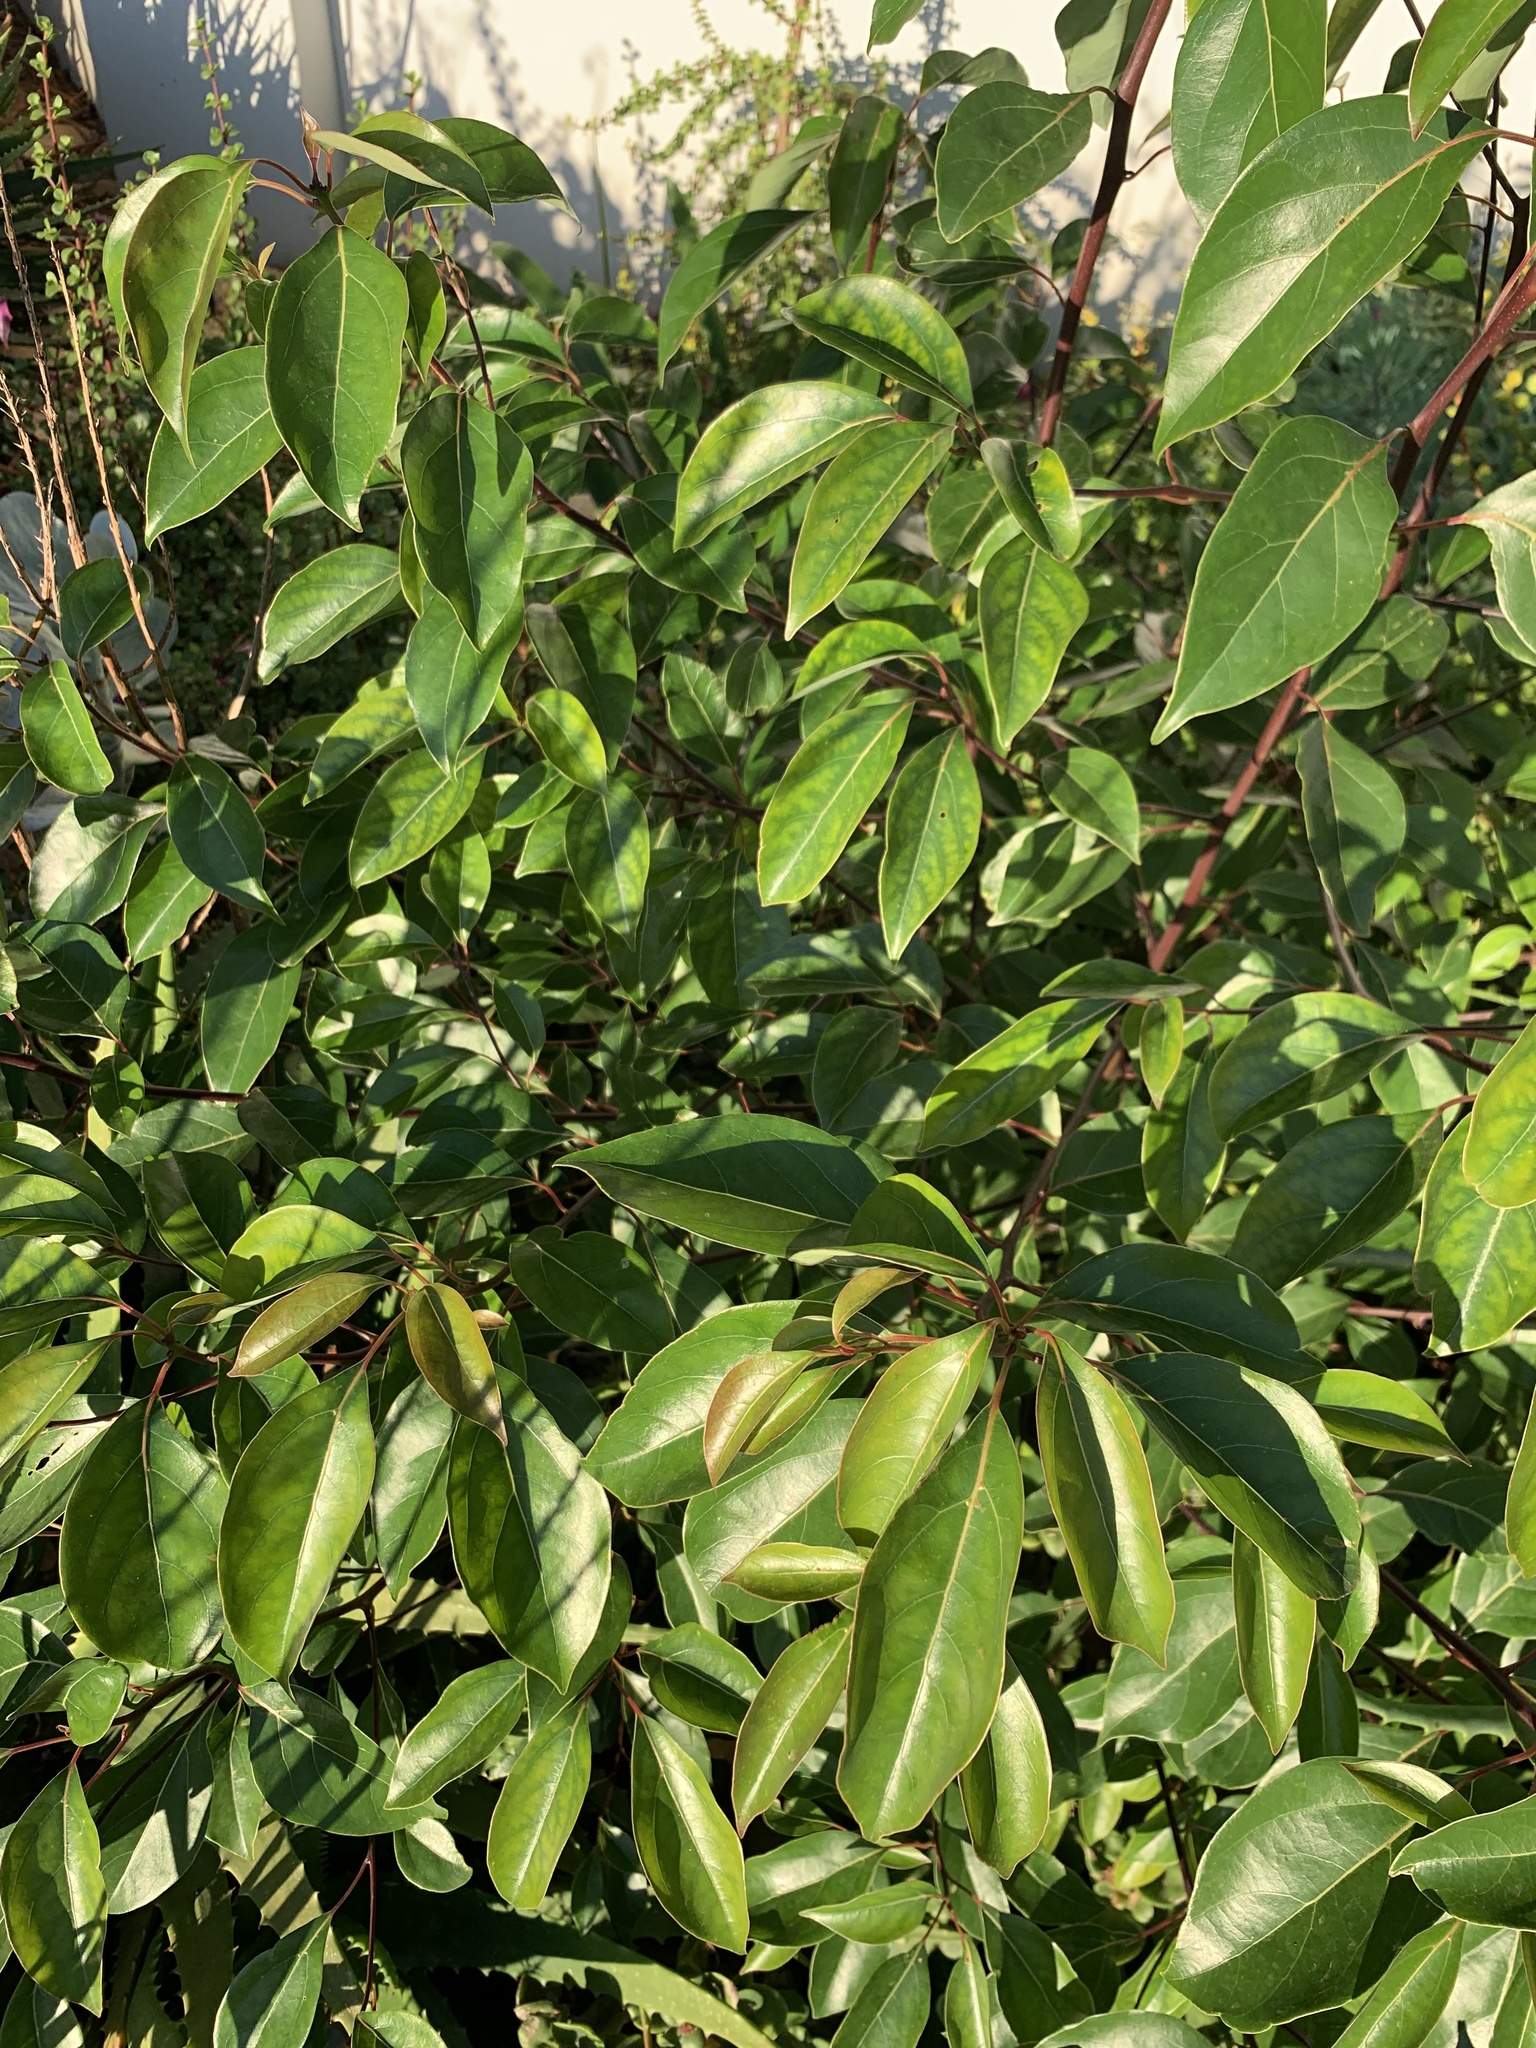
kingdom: Plantae
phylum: Tracheophyta
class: Magnoliopsida
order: Laurales
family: Lauraceae
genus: Cinnamomum
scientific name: Cinnamomum camphora
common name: Camphortree
